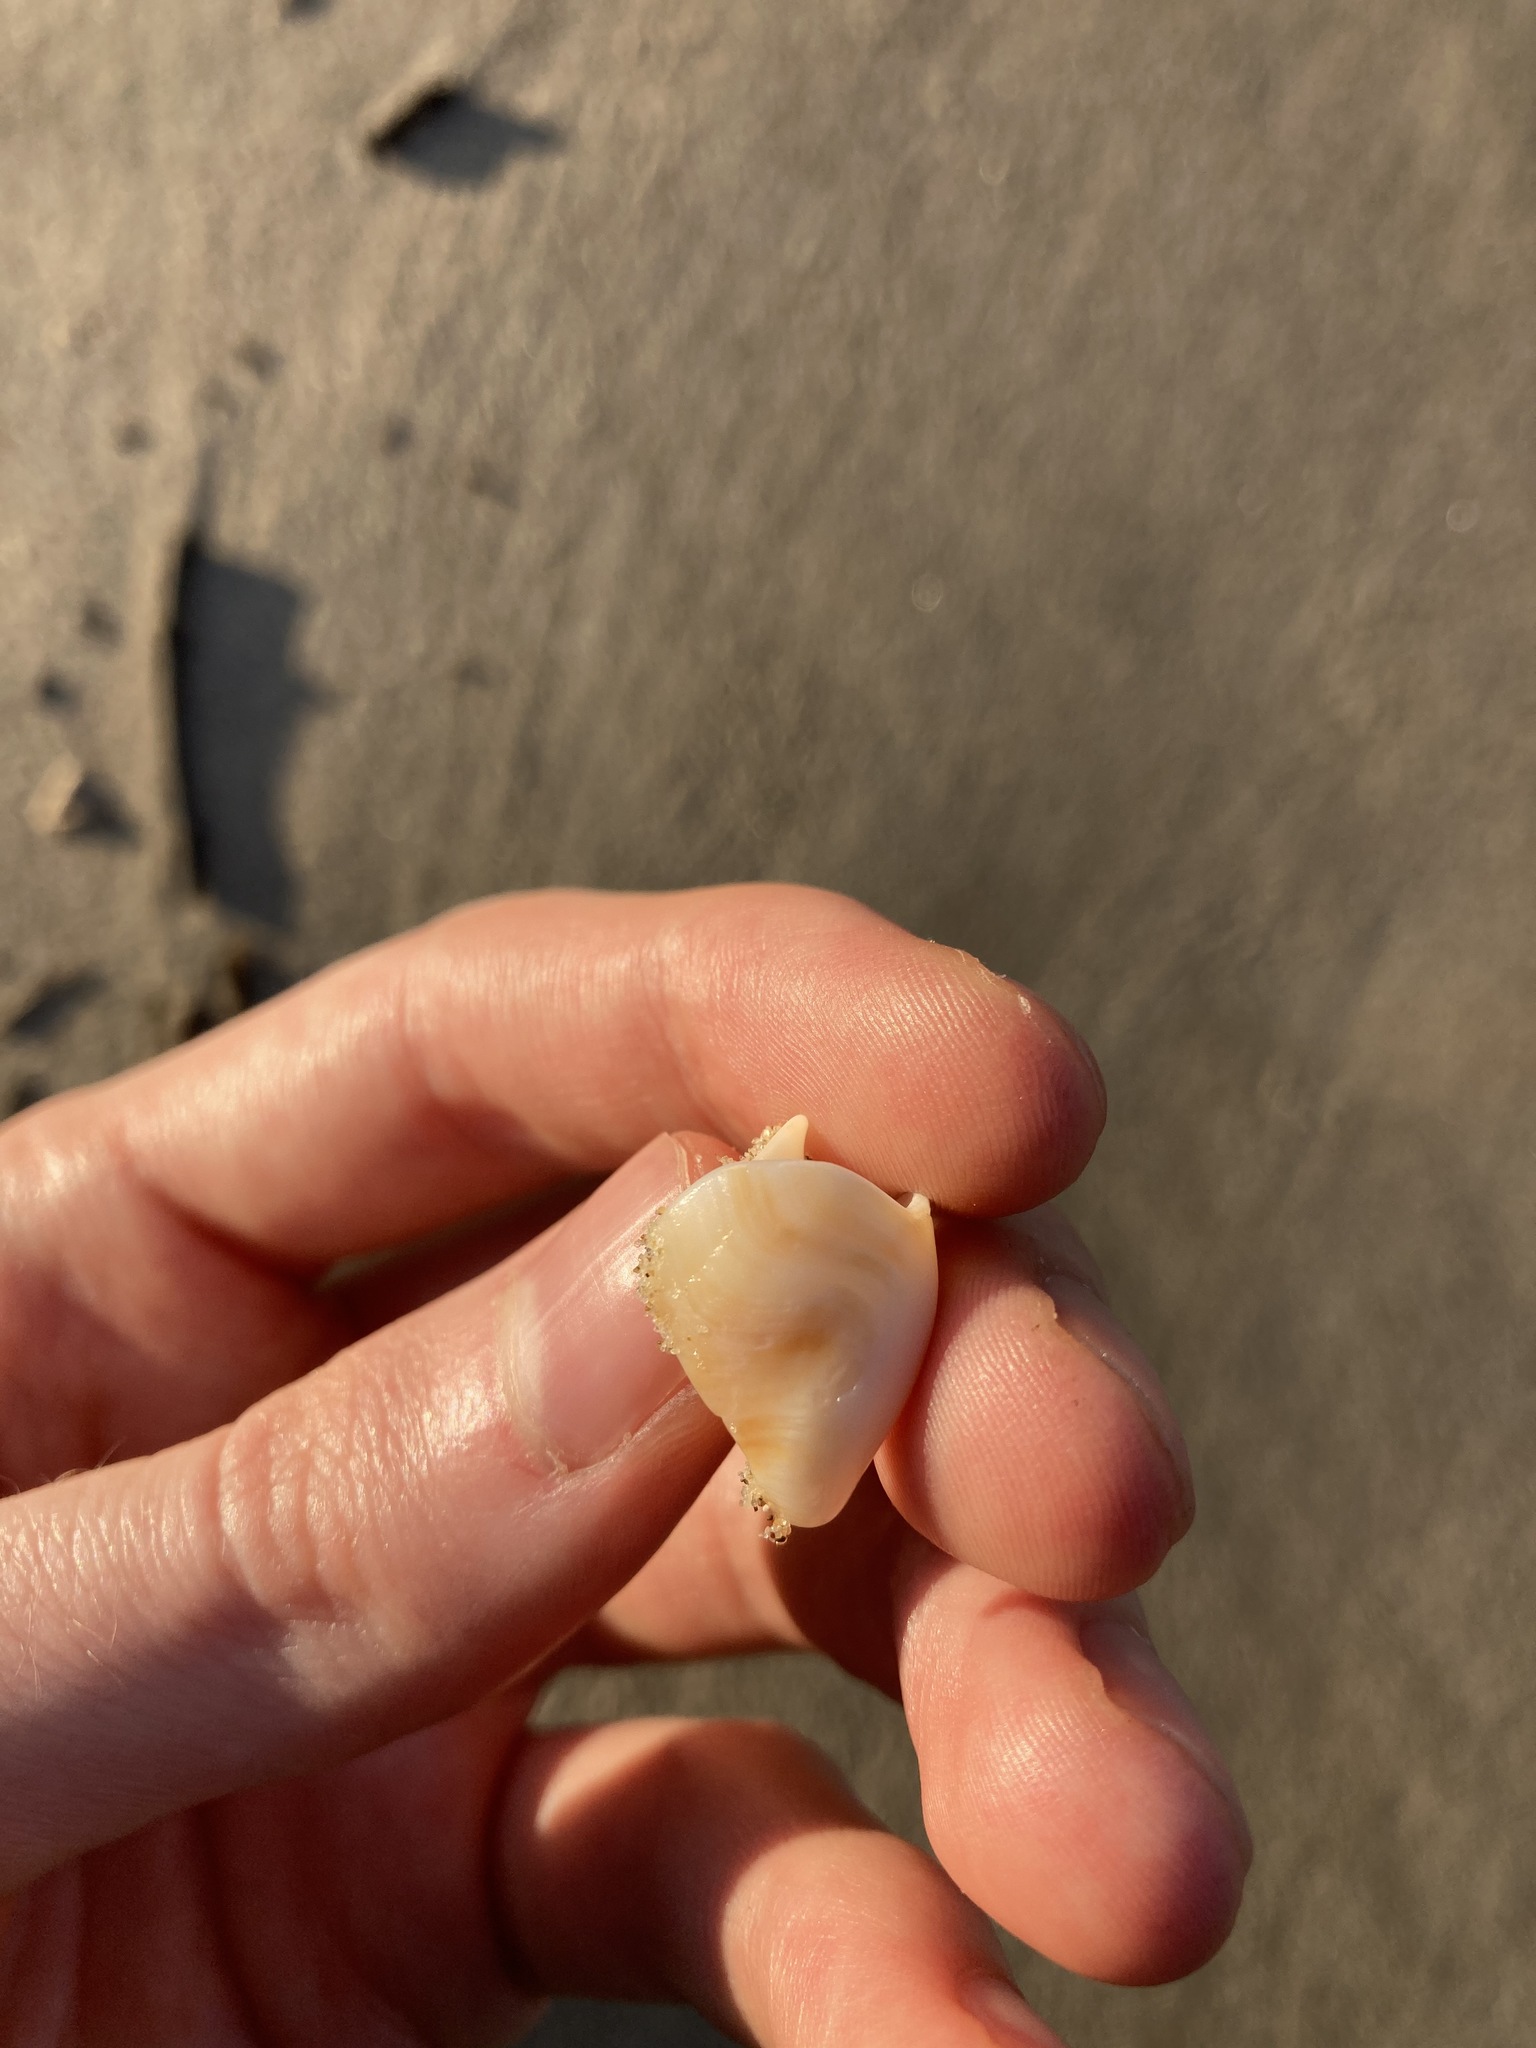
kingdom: Animalia
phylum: Mollusca
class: Gastropoda
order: Littorinimorpha
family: Struthiolariidae
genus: Tylospira
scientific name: Tylospira scutulata
